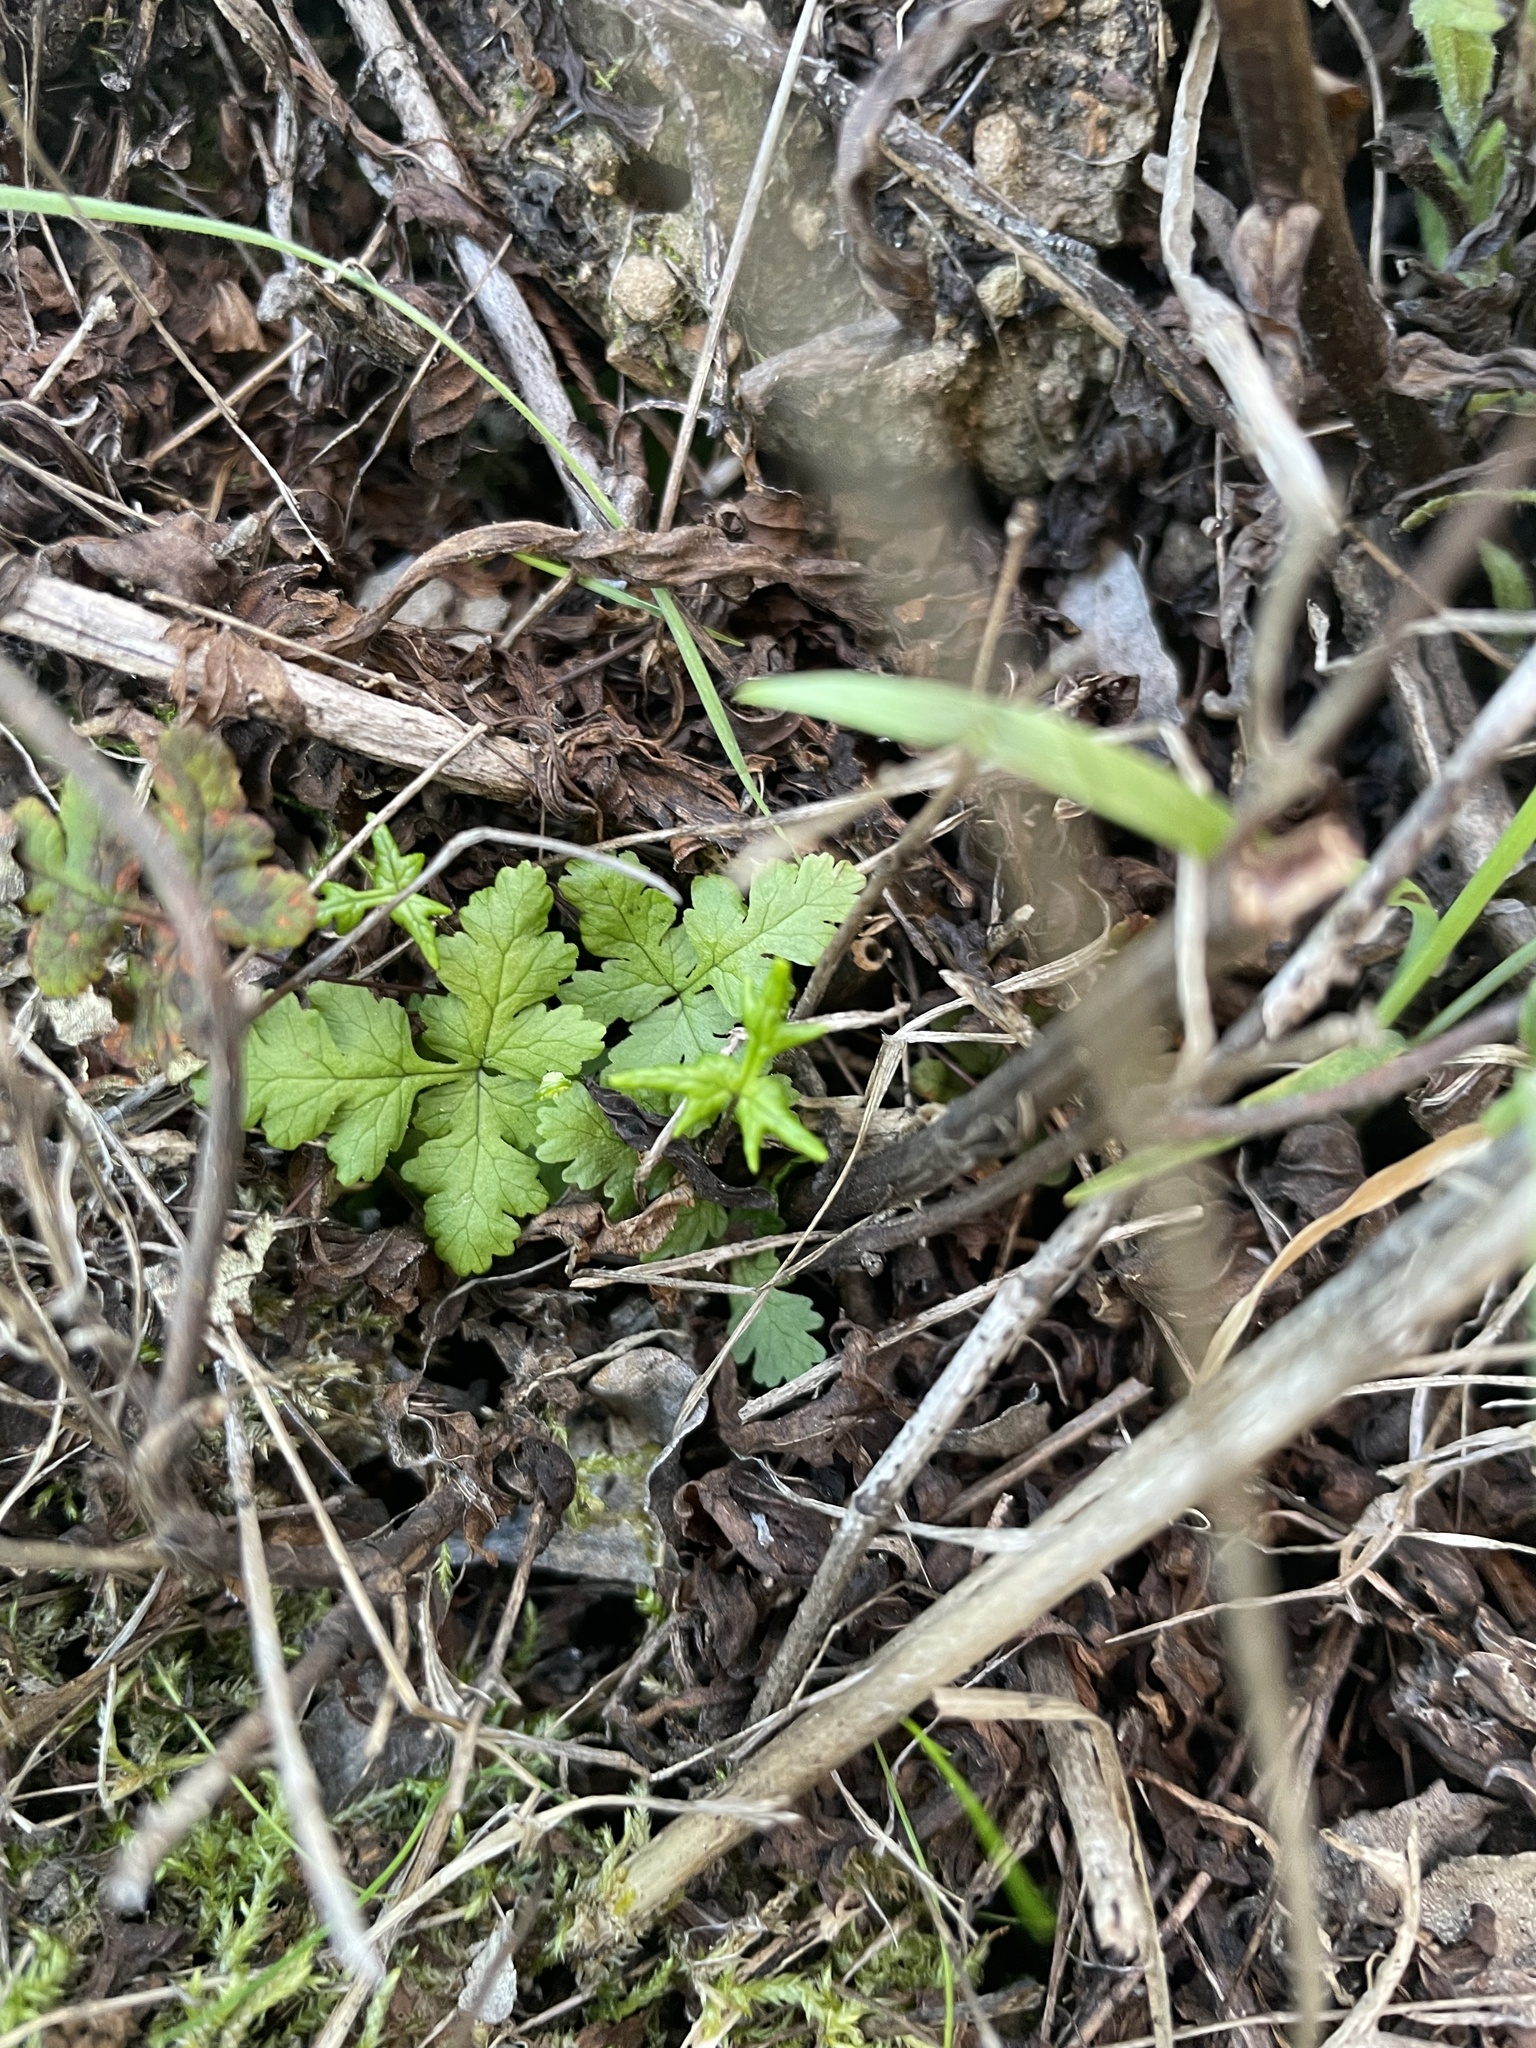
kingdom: Plantae
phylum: Tracheophyta
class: Polypodiopsida
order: Polypodiales
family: Pteridaceae
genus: Pentagramma
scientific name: Pentagramma triangularis
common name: Gold fern
